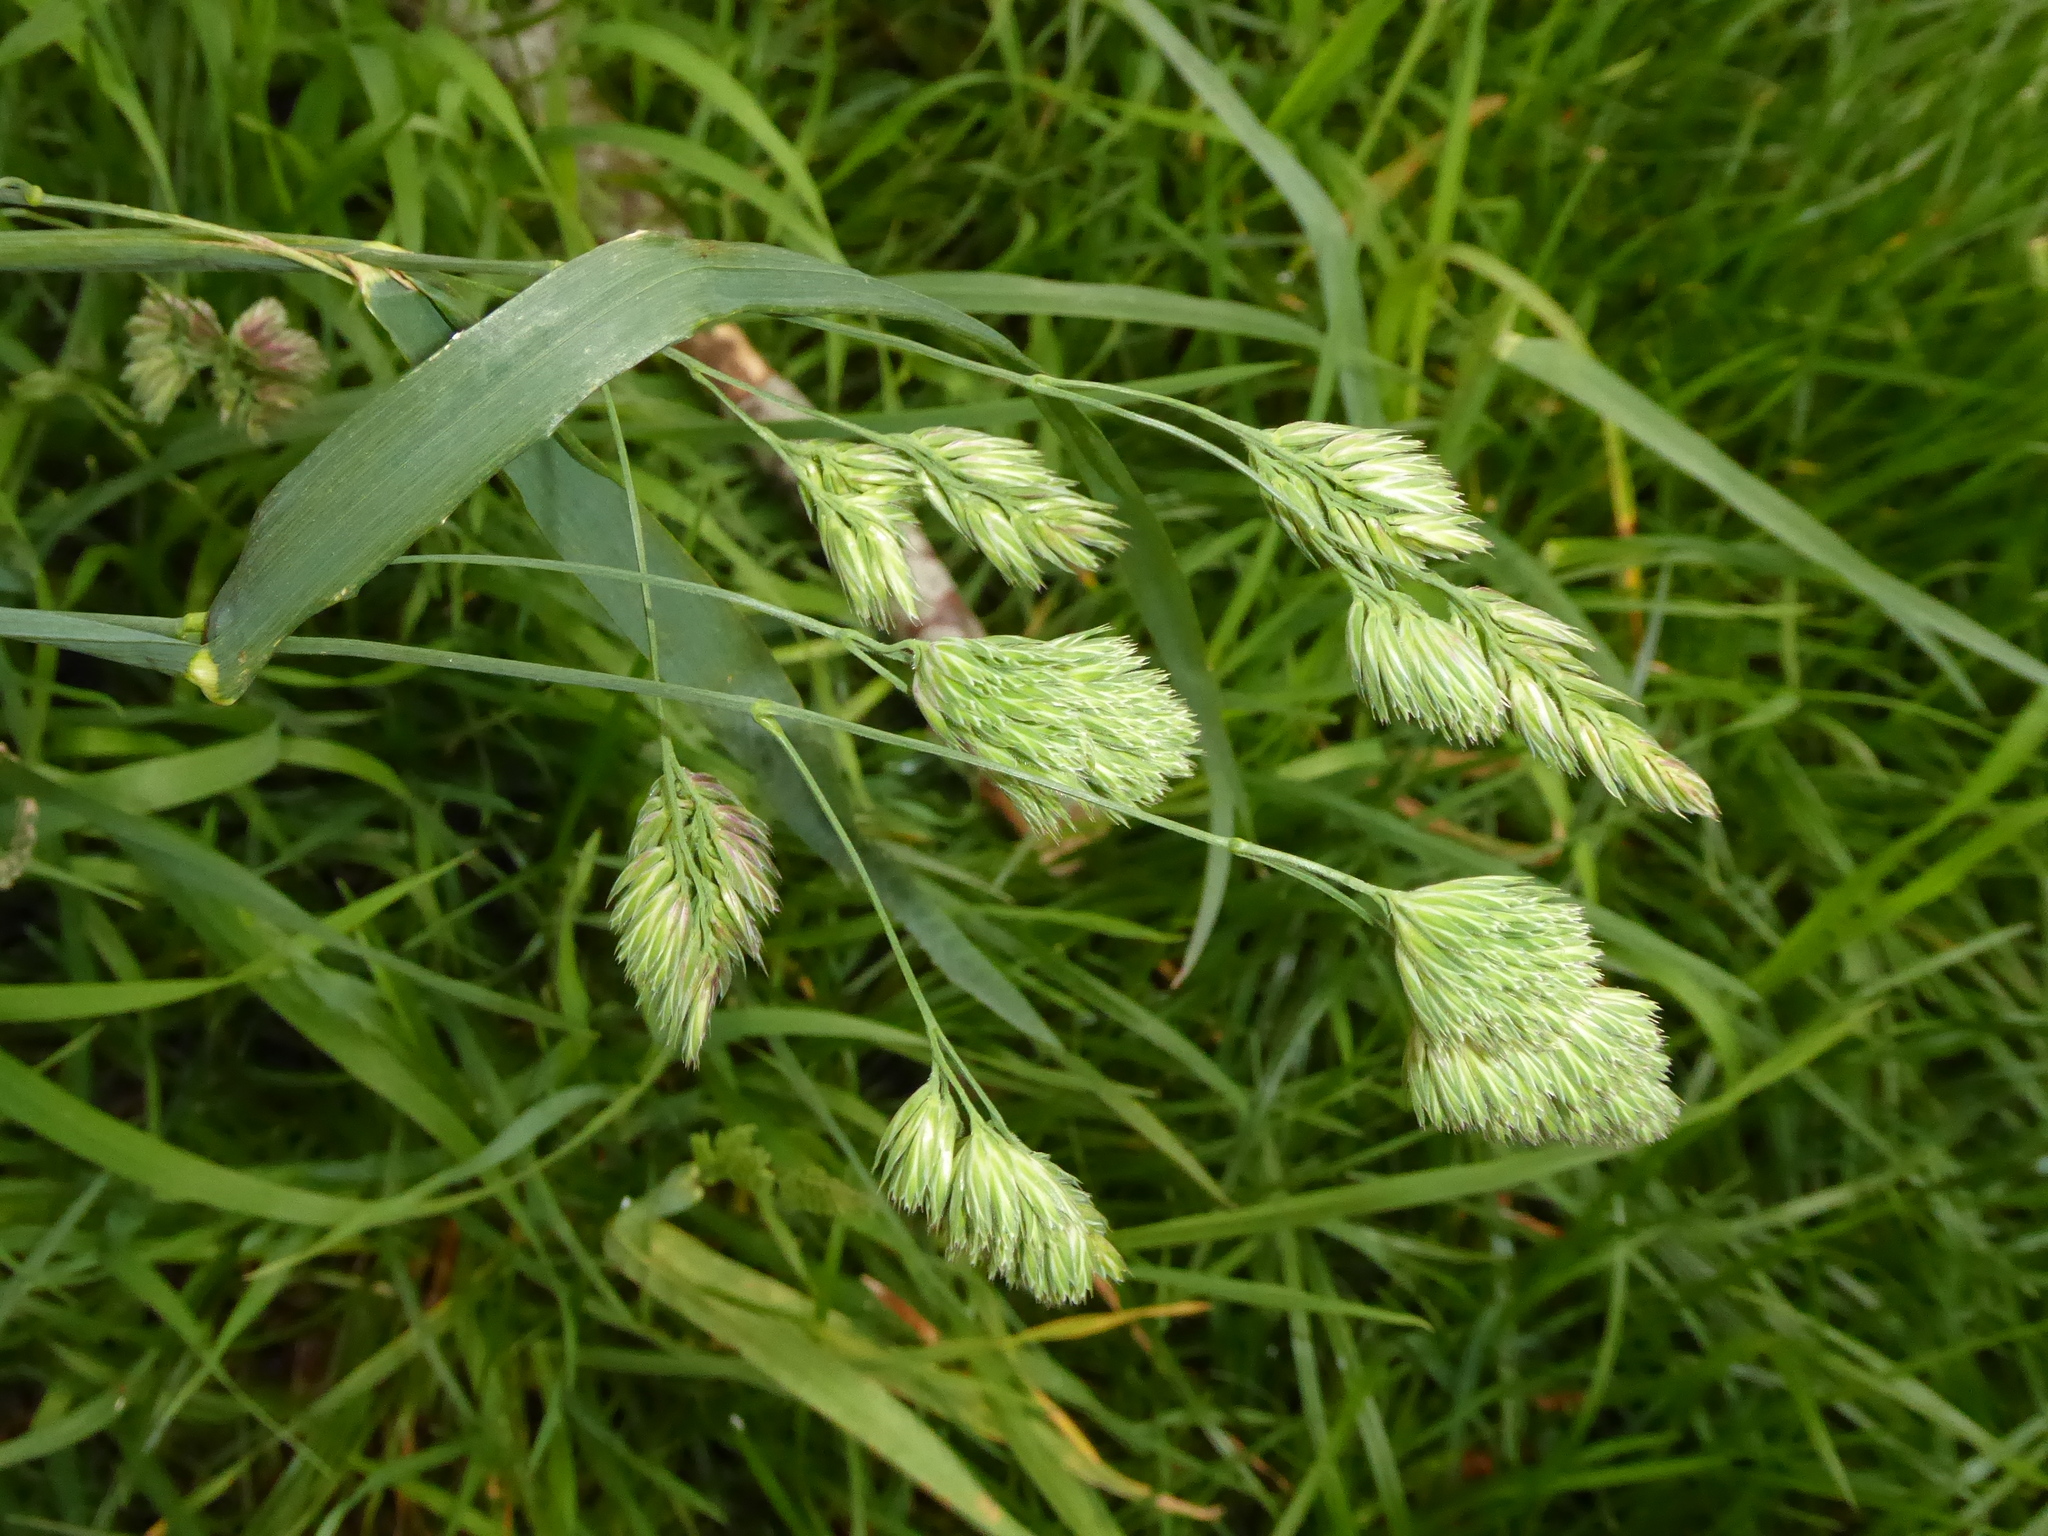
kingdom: Plantae
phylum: Tracheophyta
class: Liliopsida
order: Poales
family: Poaceae
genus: Dactylis
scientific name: Dactylis glomerata
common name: Orchardgrass
